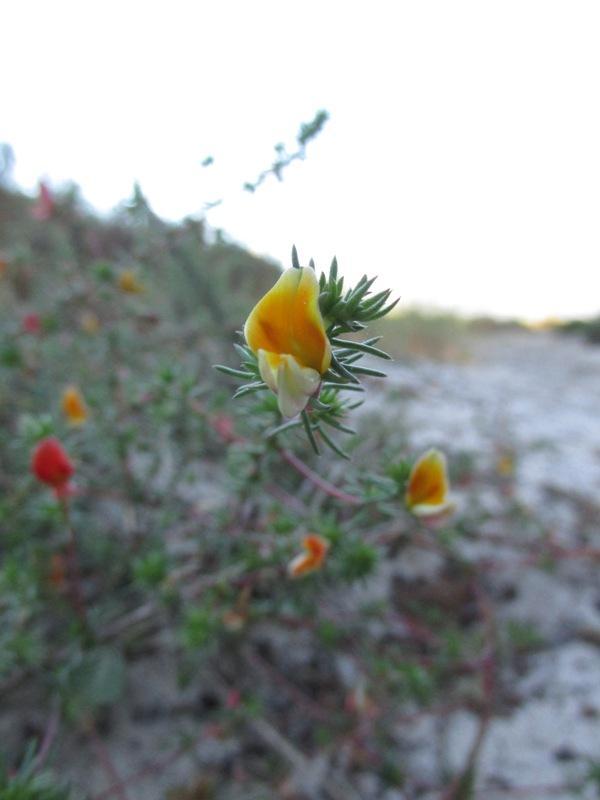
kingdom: Plantae
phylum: Tracheophyta
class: Magnoliopsida
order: Fabales
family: Fabaceae
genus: Aspalathus
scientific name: Aspalathus retroflexa
